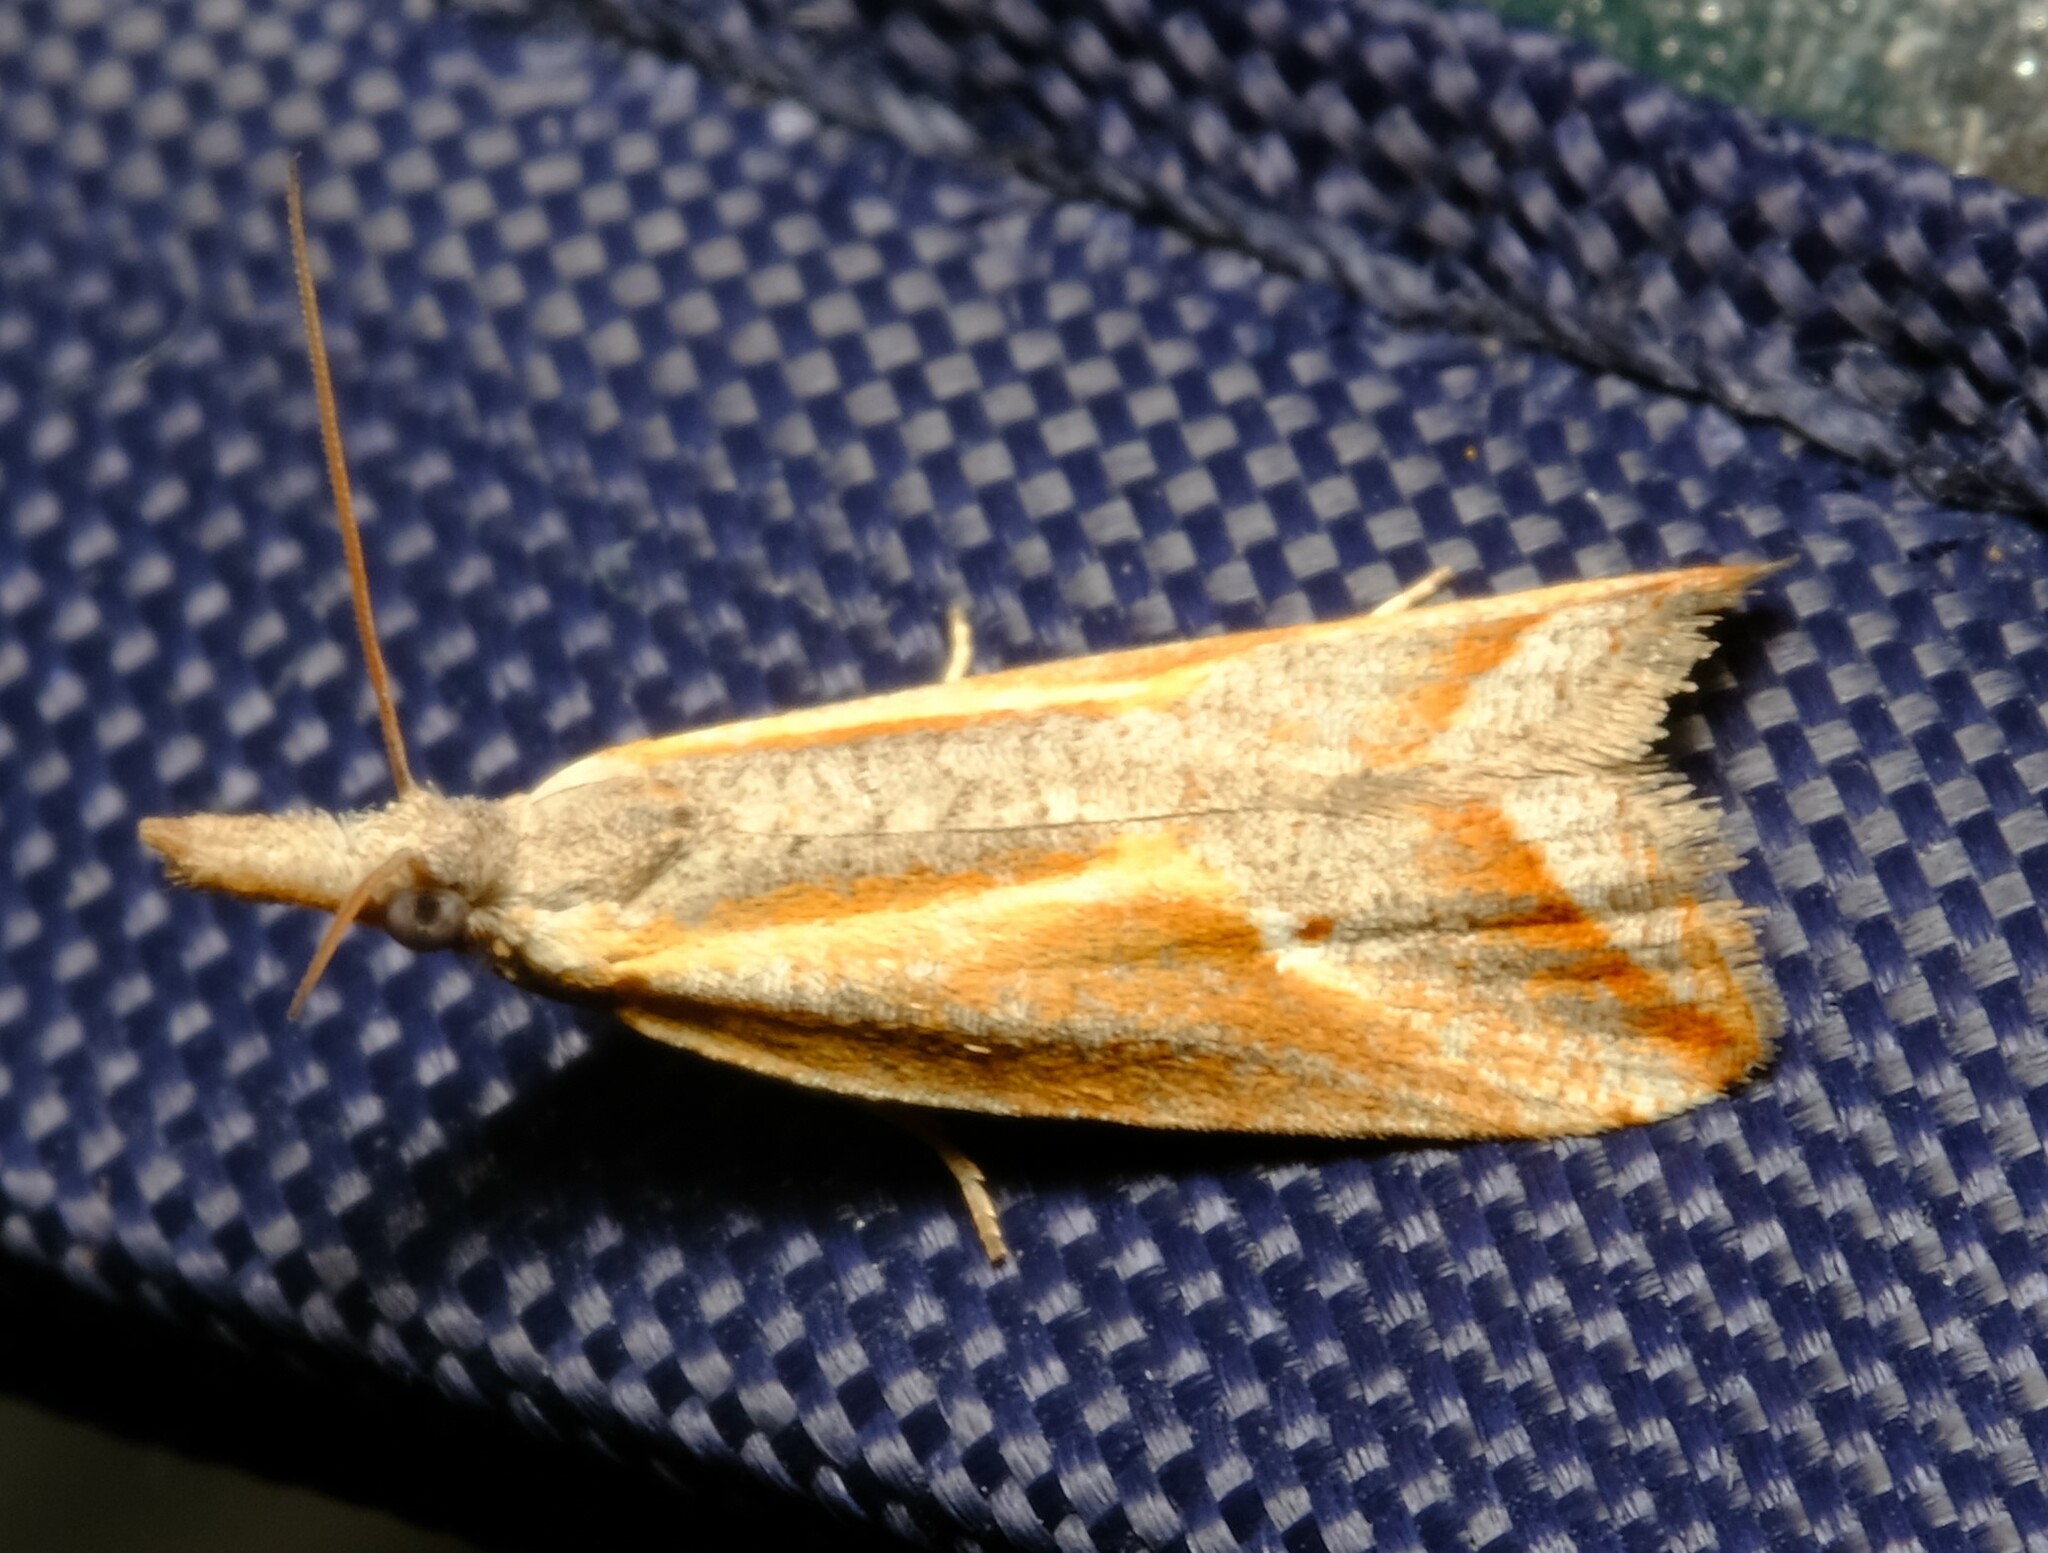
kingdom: Animalia
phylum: Arthropoda
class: Insecta
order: Lepidoptera
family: Tortricidae
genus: Arotrophora
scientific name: Arotrophora arcuatalis
